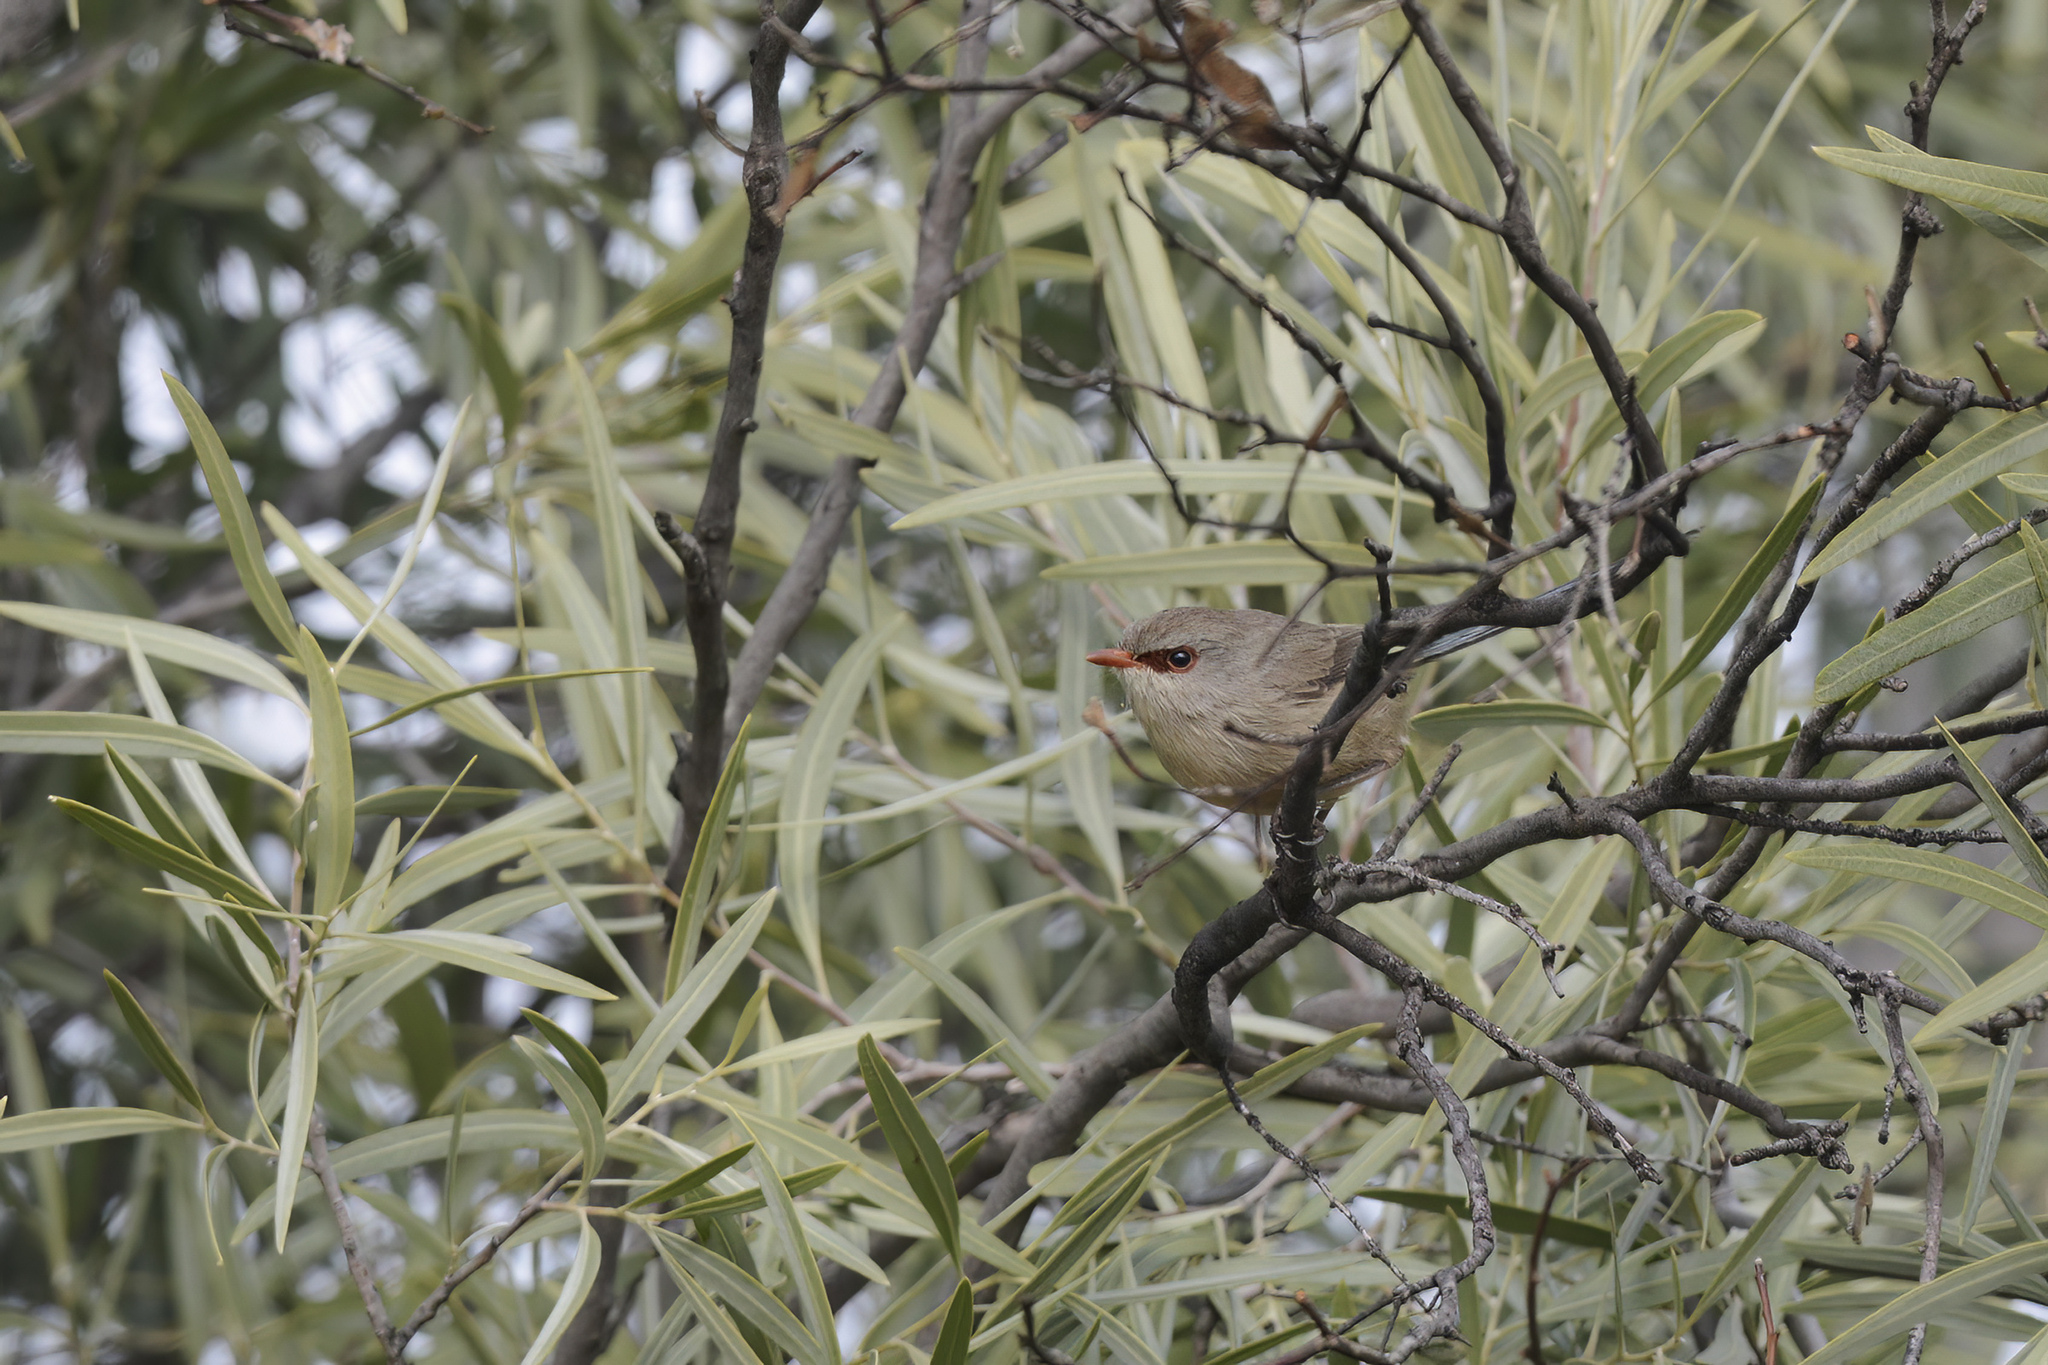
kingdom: Animalia
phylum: Chordata
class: Aves
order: Passeriformes
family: Maluridae
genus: Malurus
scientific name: Malurus assimilis
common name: Purple-backed fairywren
